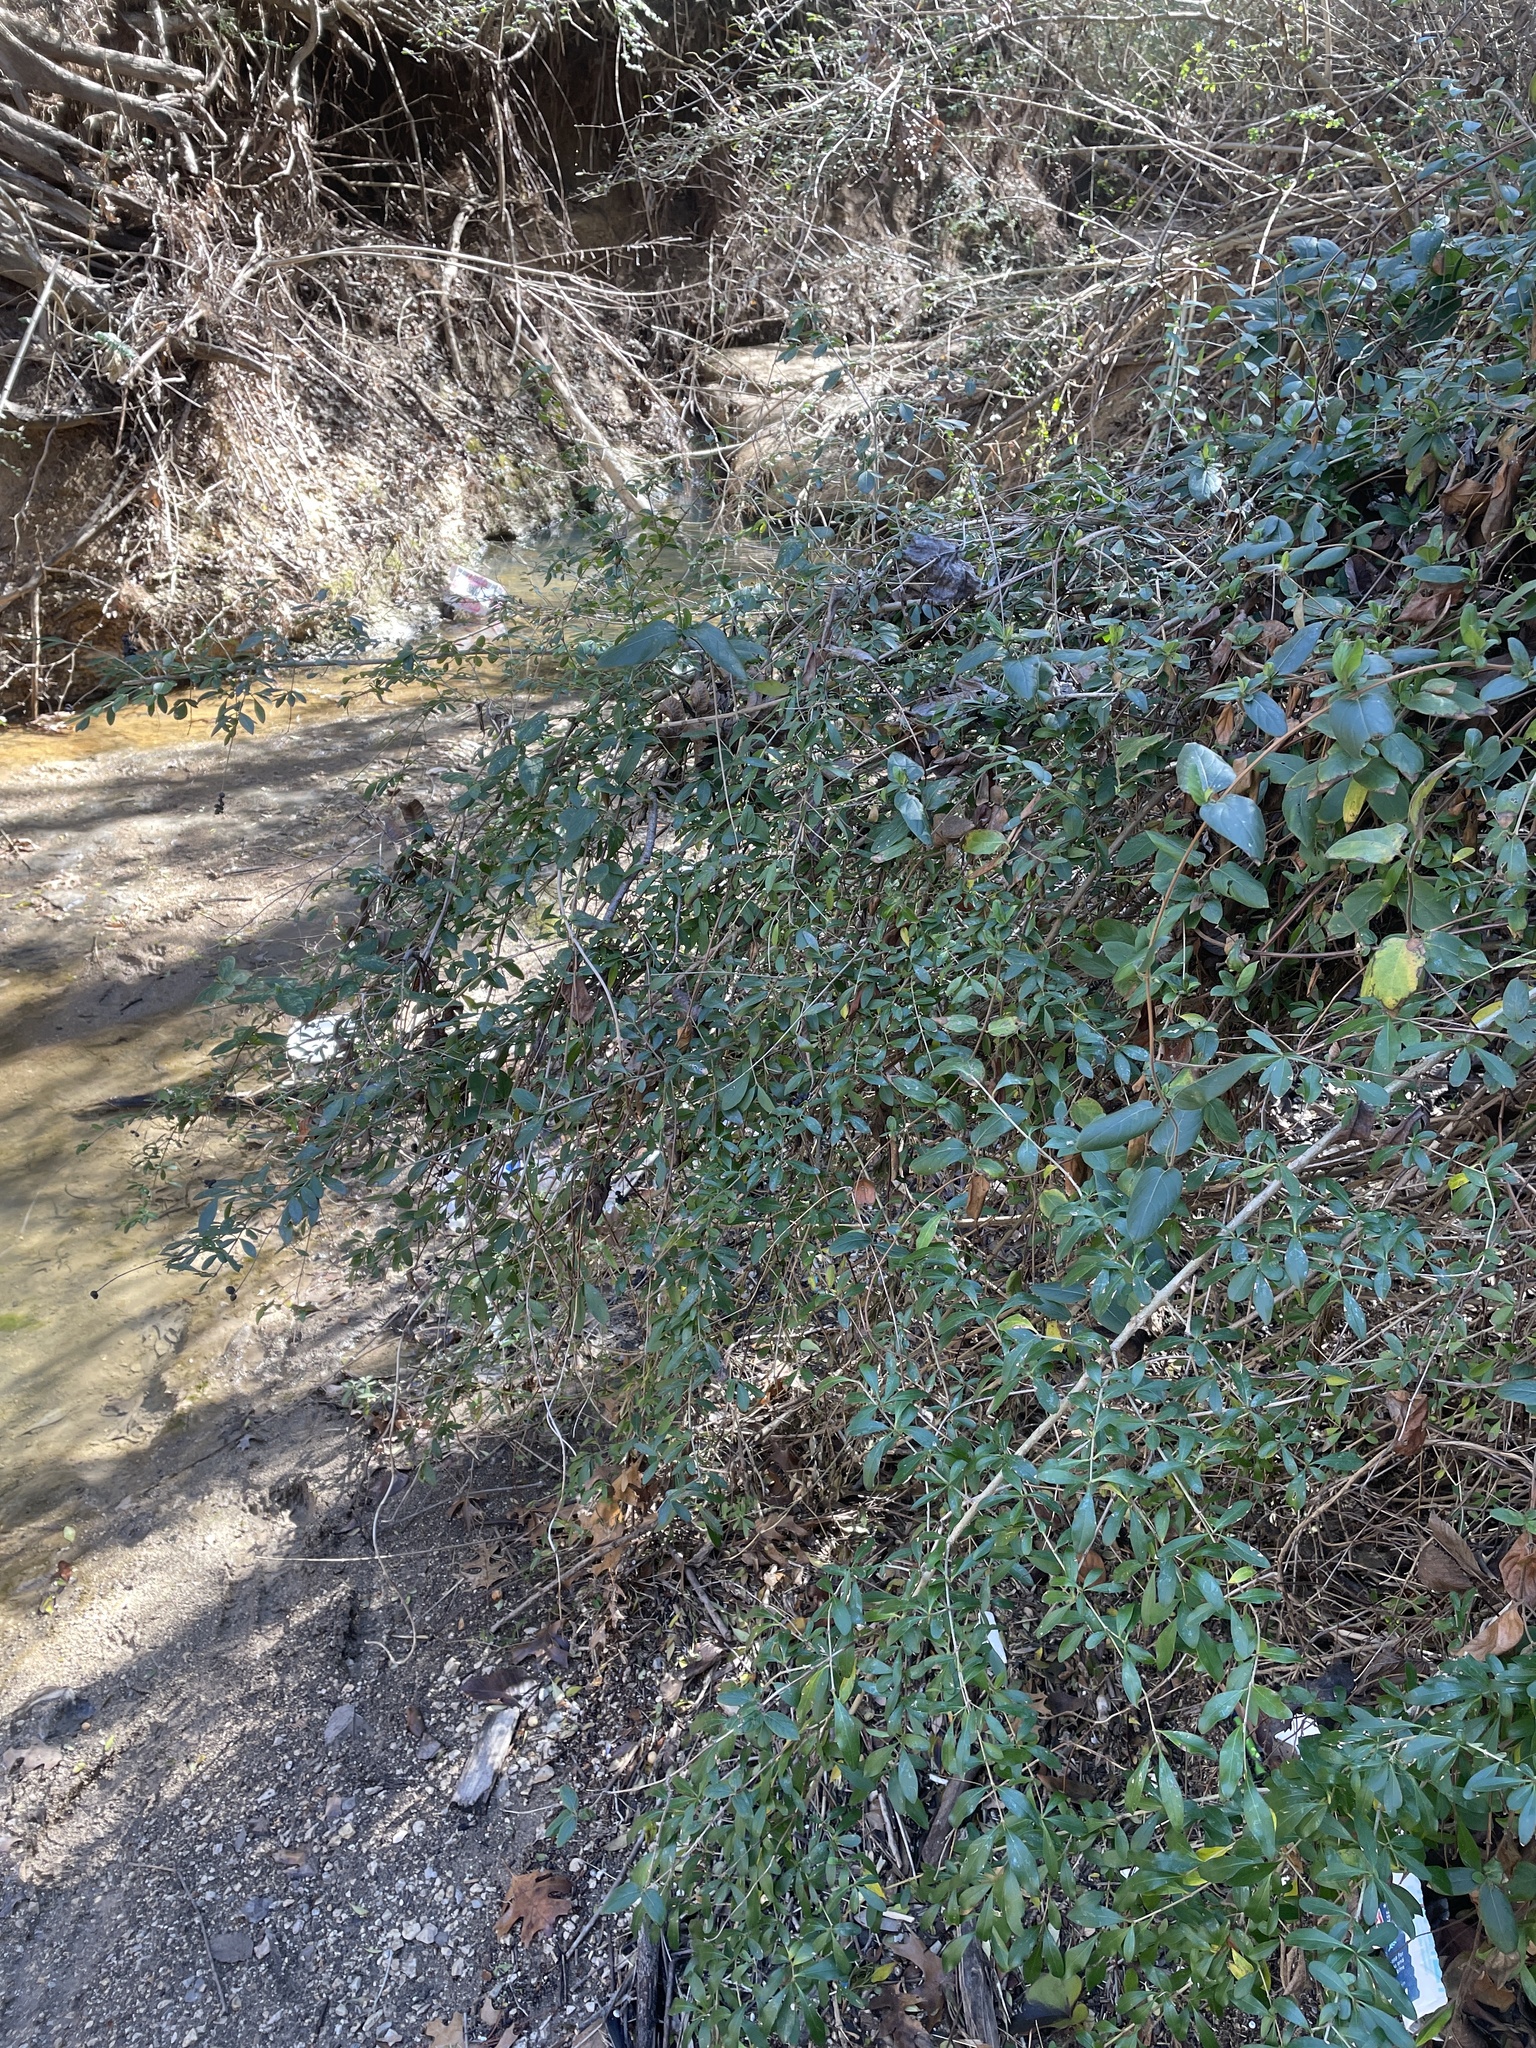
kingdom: Plantae
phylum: Tracheophyta
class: Magnoliopsida
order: Lamiales
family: Oleaceae
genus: Ligustrum
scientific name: Ligustrum quihoui
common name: Waxyleaf privet
